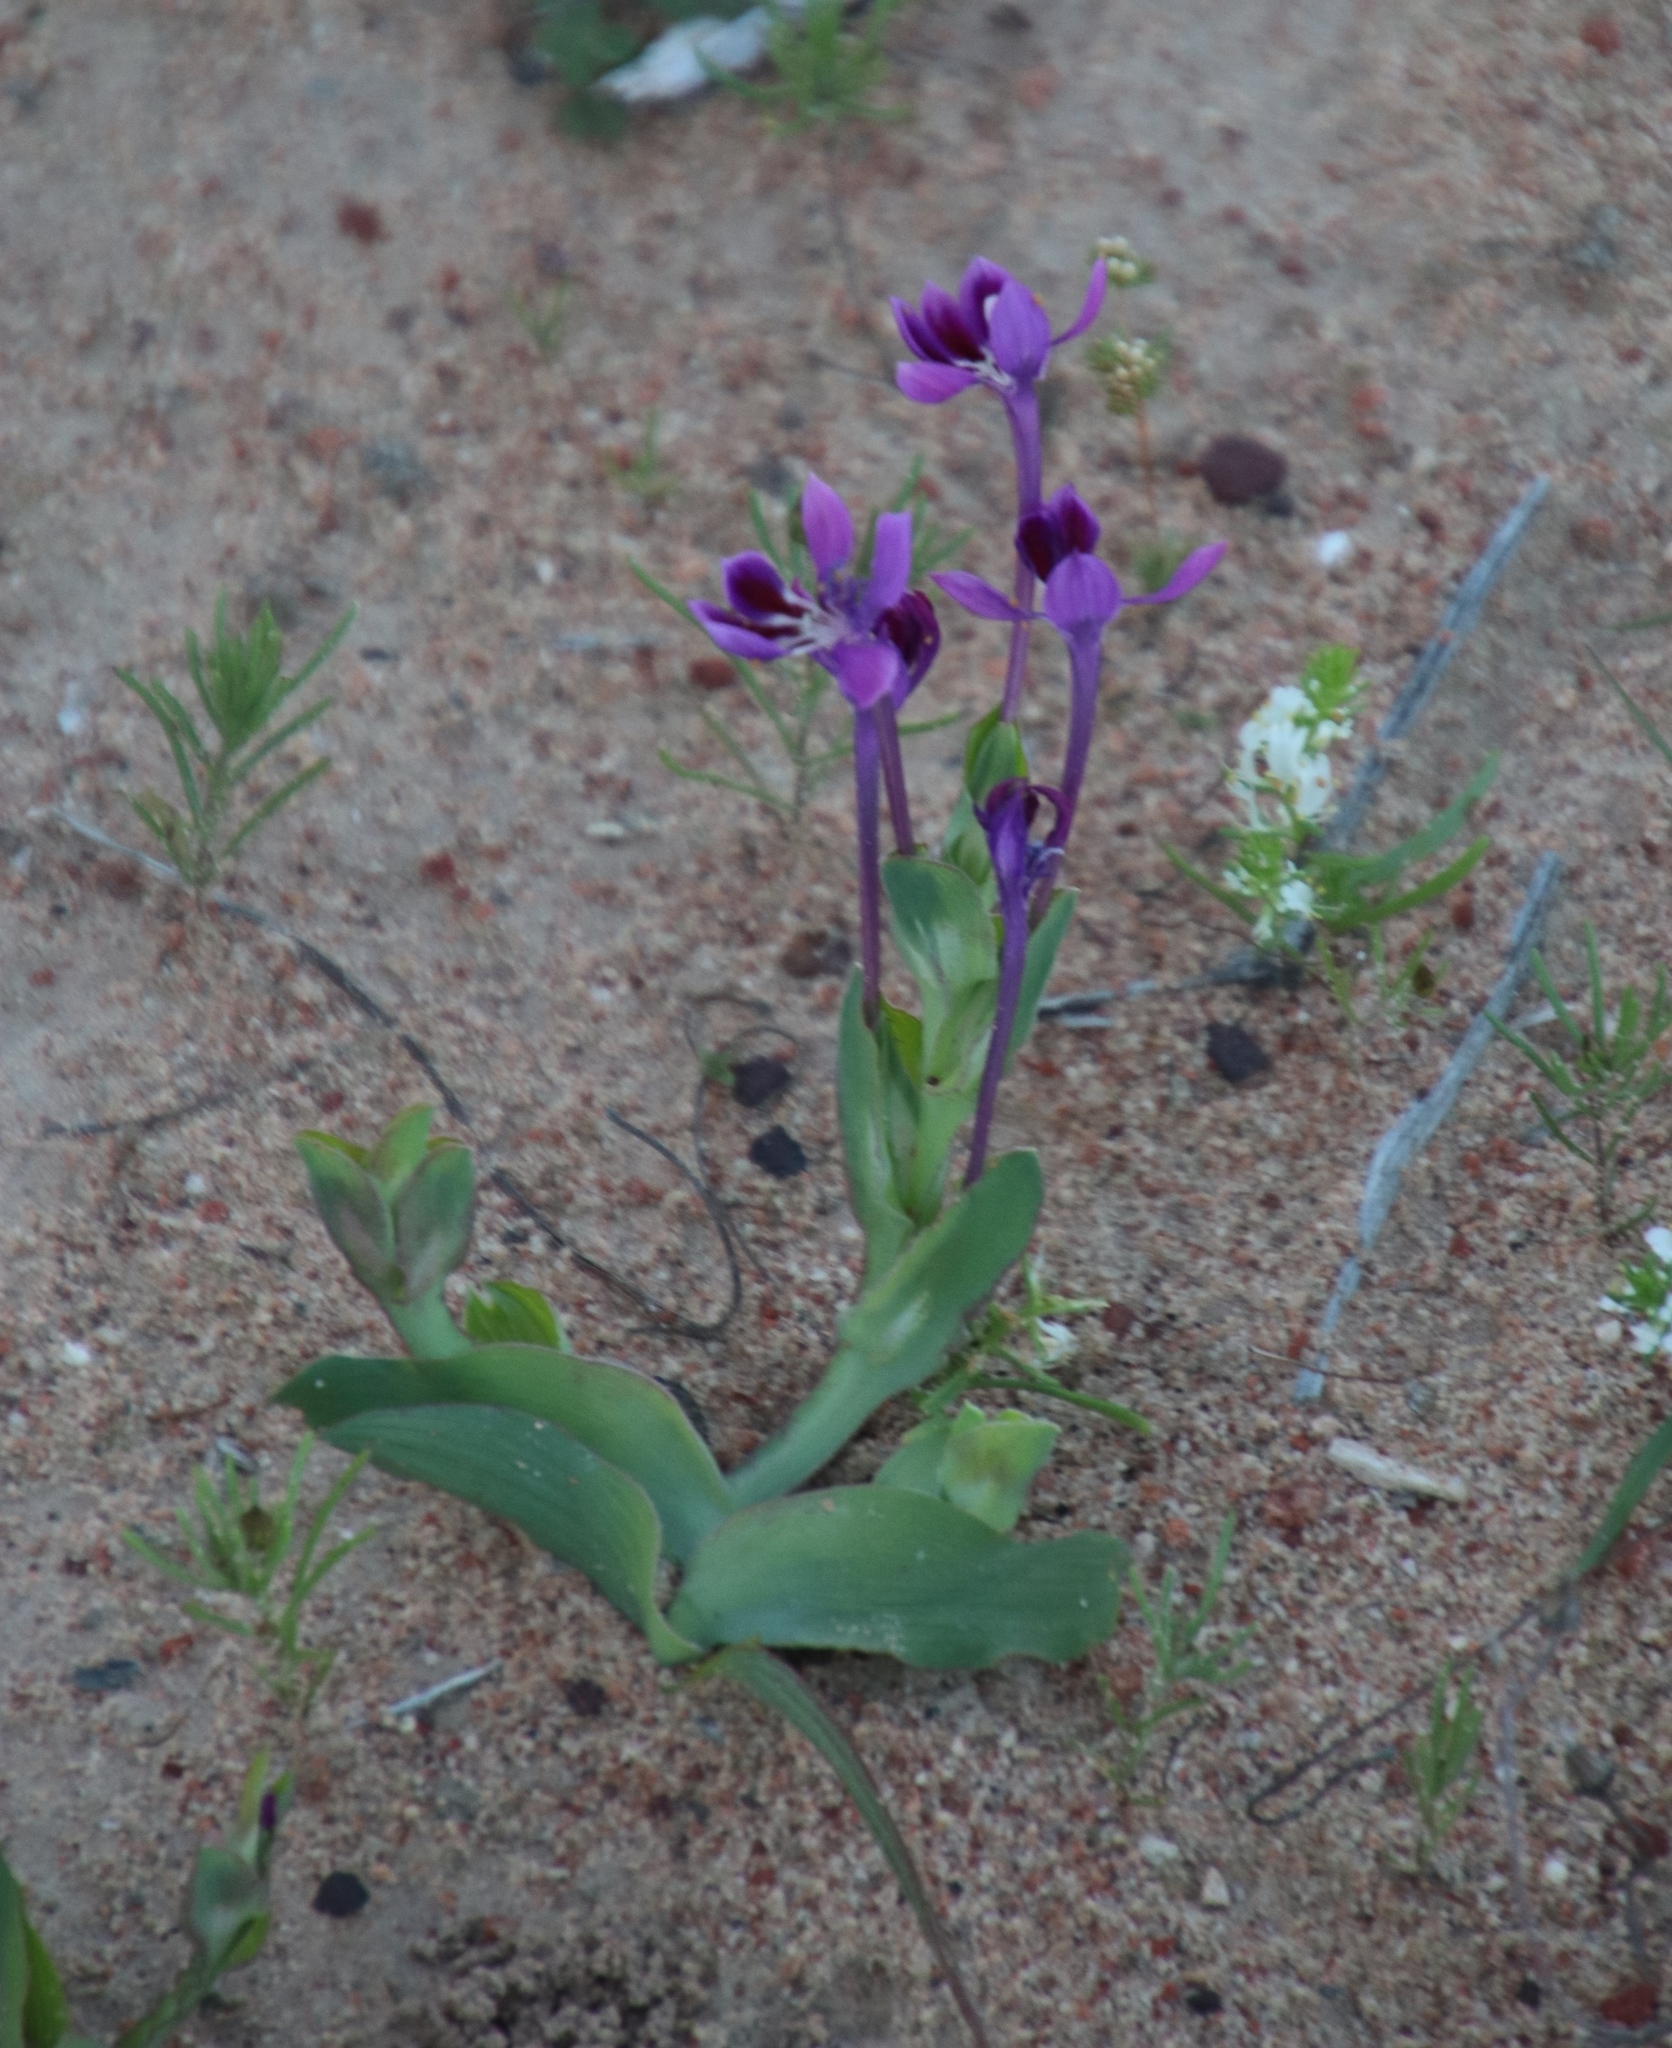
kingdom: Plantae
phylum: Tracheophyta
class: Liliopsida
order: Asparagales
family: Iridaceae
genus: Lapeirousia
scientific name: Lapeirousia jacquinii
